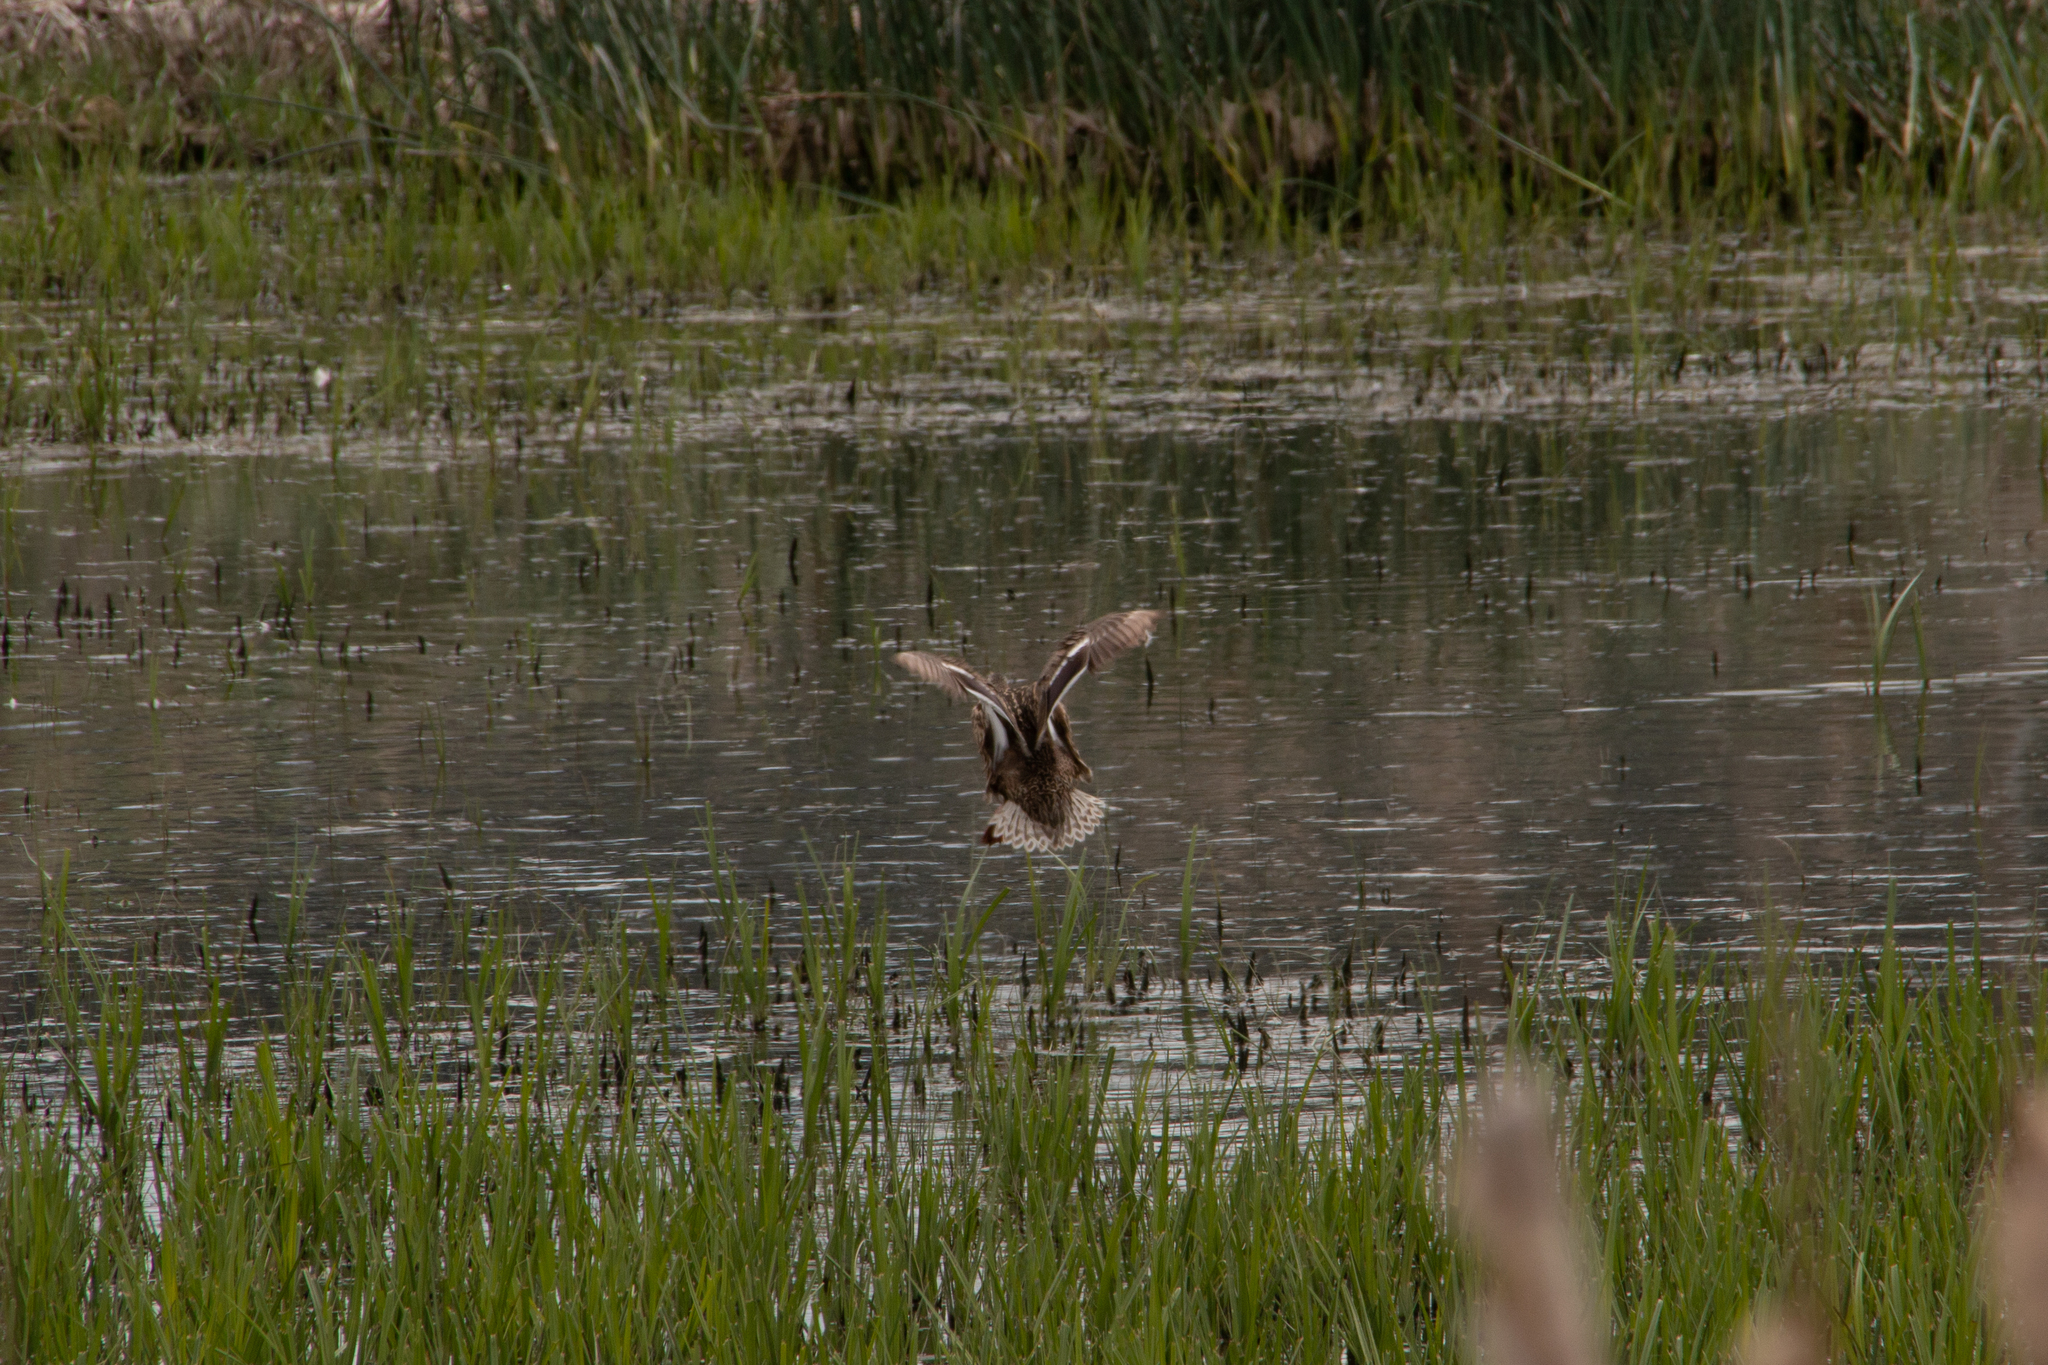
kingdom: Animalia
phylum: Chordata
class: Aves
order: Anseriformes
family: Anatidae
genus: Anas
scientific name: Anas platyrhynchos
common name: Mallard
